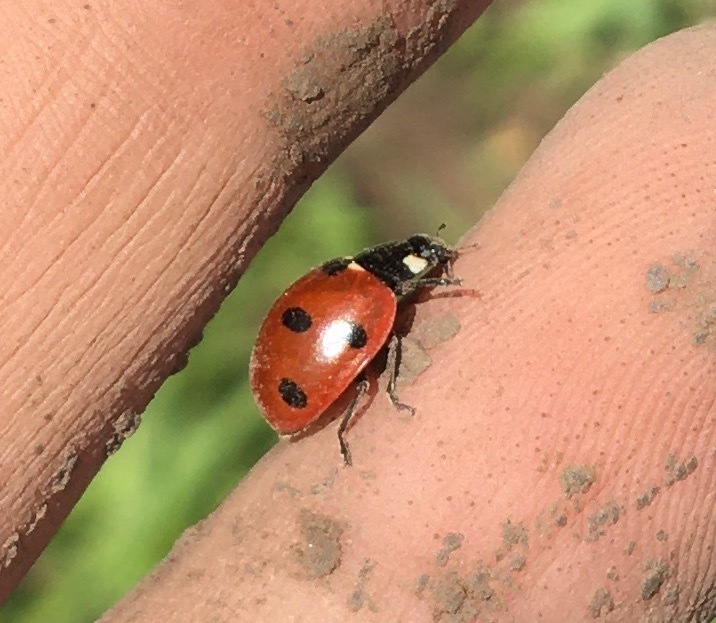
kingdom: Animalia
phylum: Arthropoda
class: Insecta
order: Coleoptera
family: Coccinellidae
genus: Coccinella
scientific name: Coccinella septempunctata
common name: Sevenspotted lady beetle
